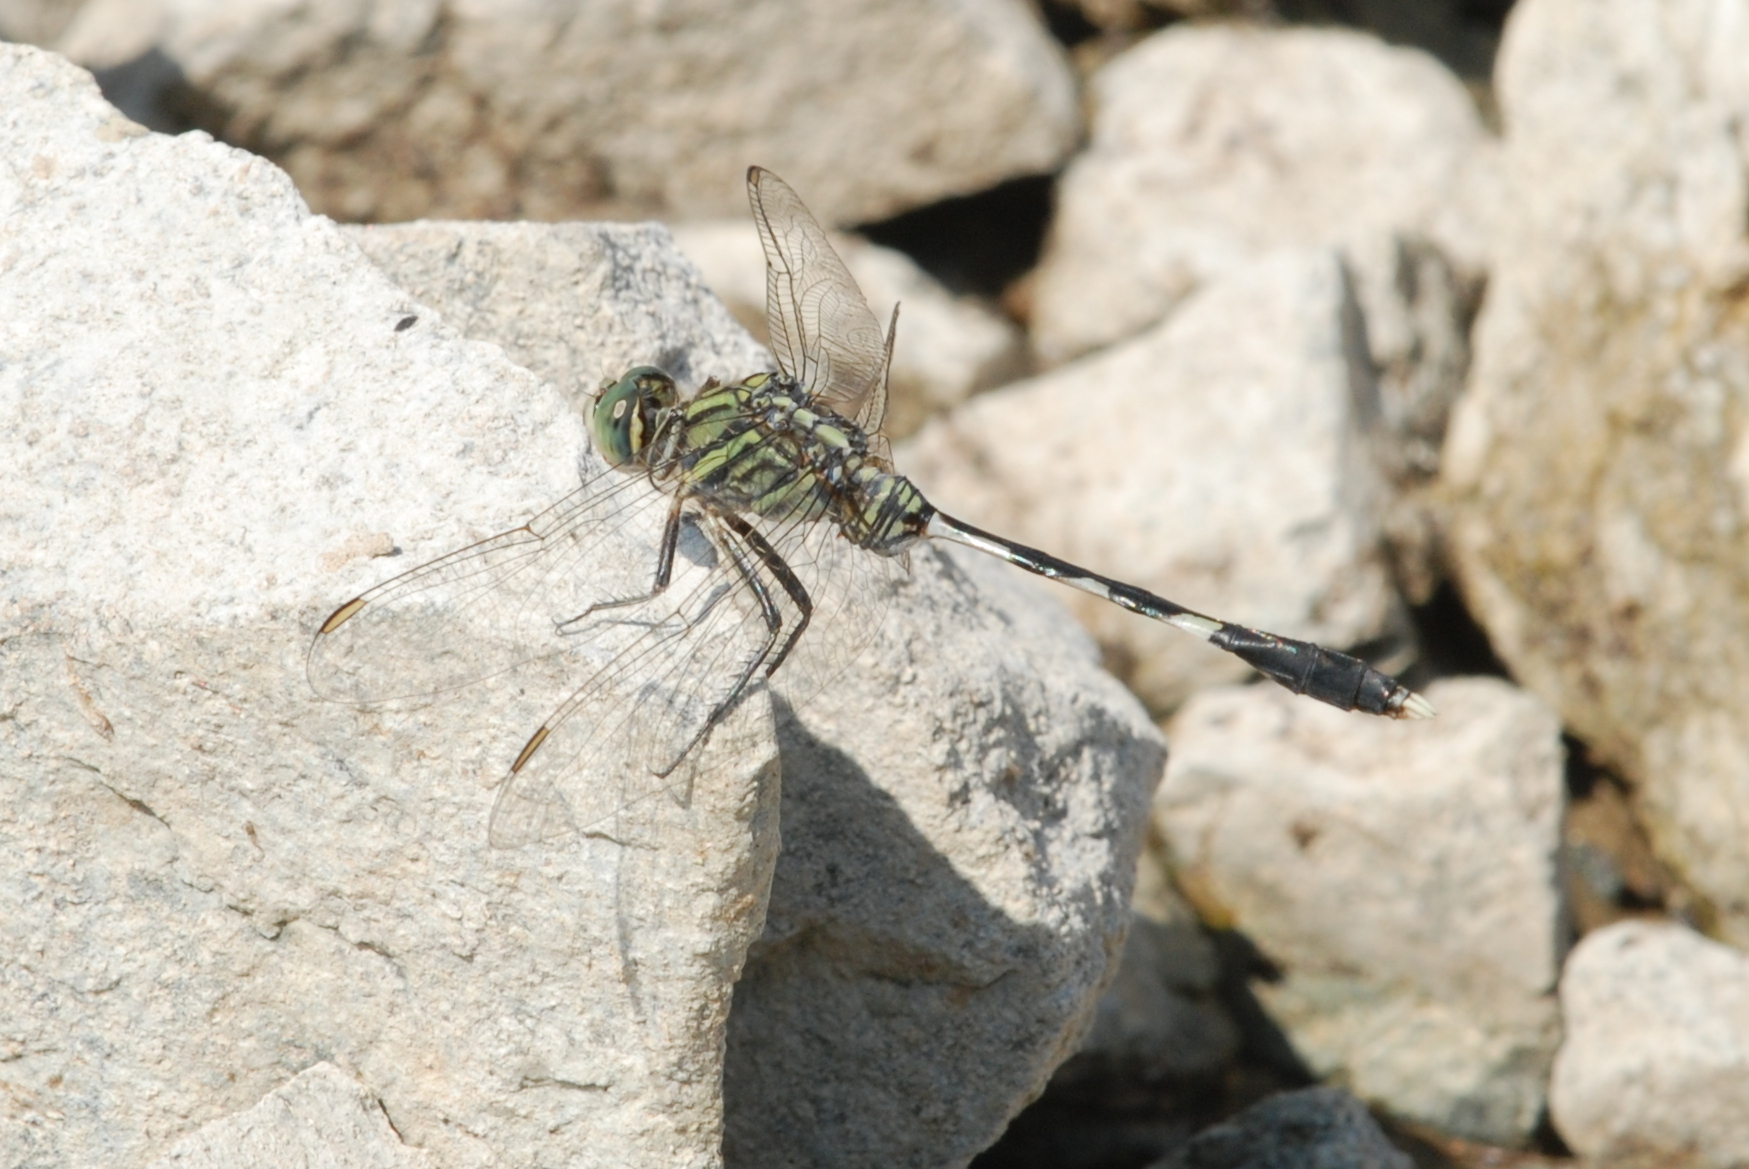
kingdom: Animalia
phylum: Arthropoda
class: Insecta
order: Odonata
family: Libellulidae
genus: Orthetrum
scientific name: Orthetrum sabina
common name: Slender skimmer
